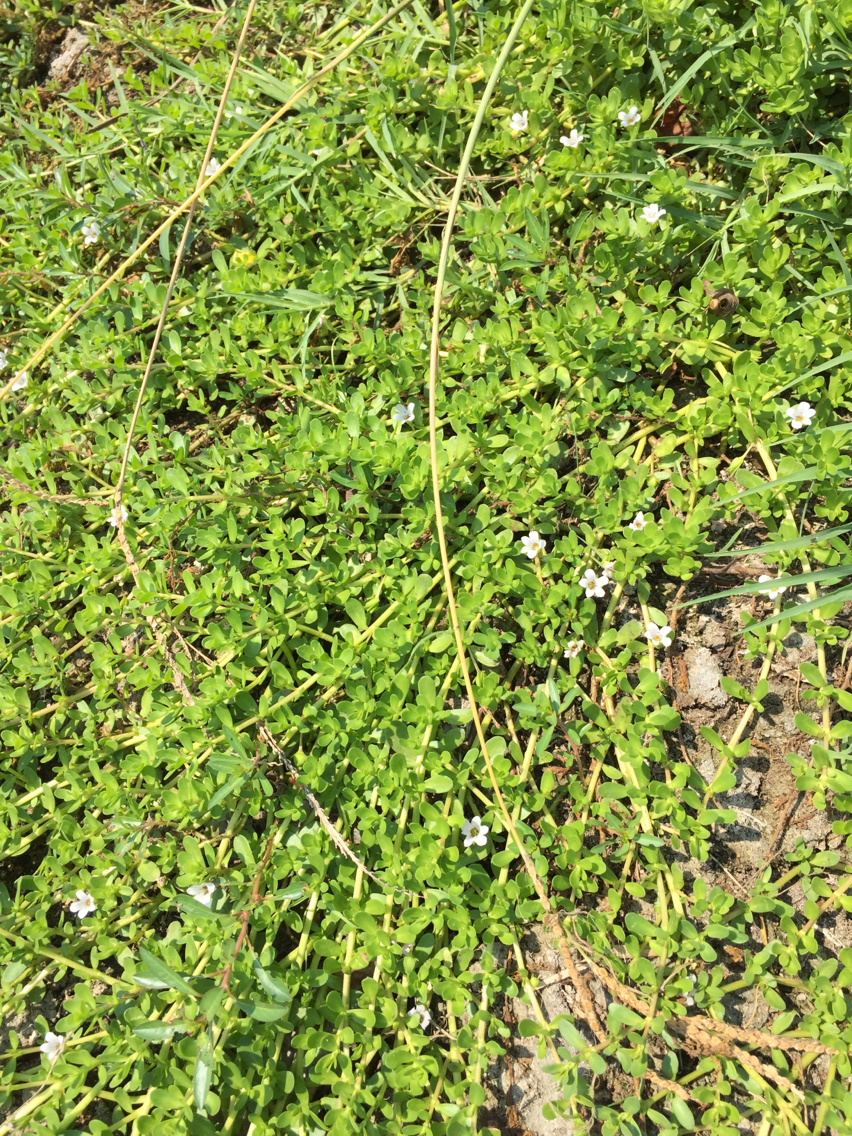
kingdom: Plantae
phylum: Tracheophyta
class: Magnoliopsida
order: Lamiales
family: Plantaginaceae
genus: Bacopa
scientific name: Bacopa monnieri
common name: Indian-pennywort
